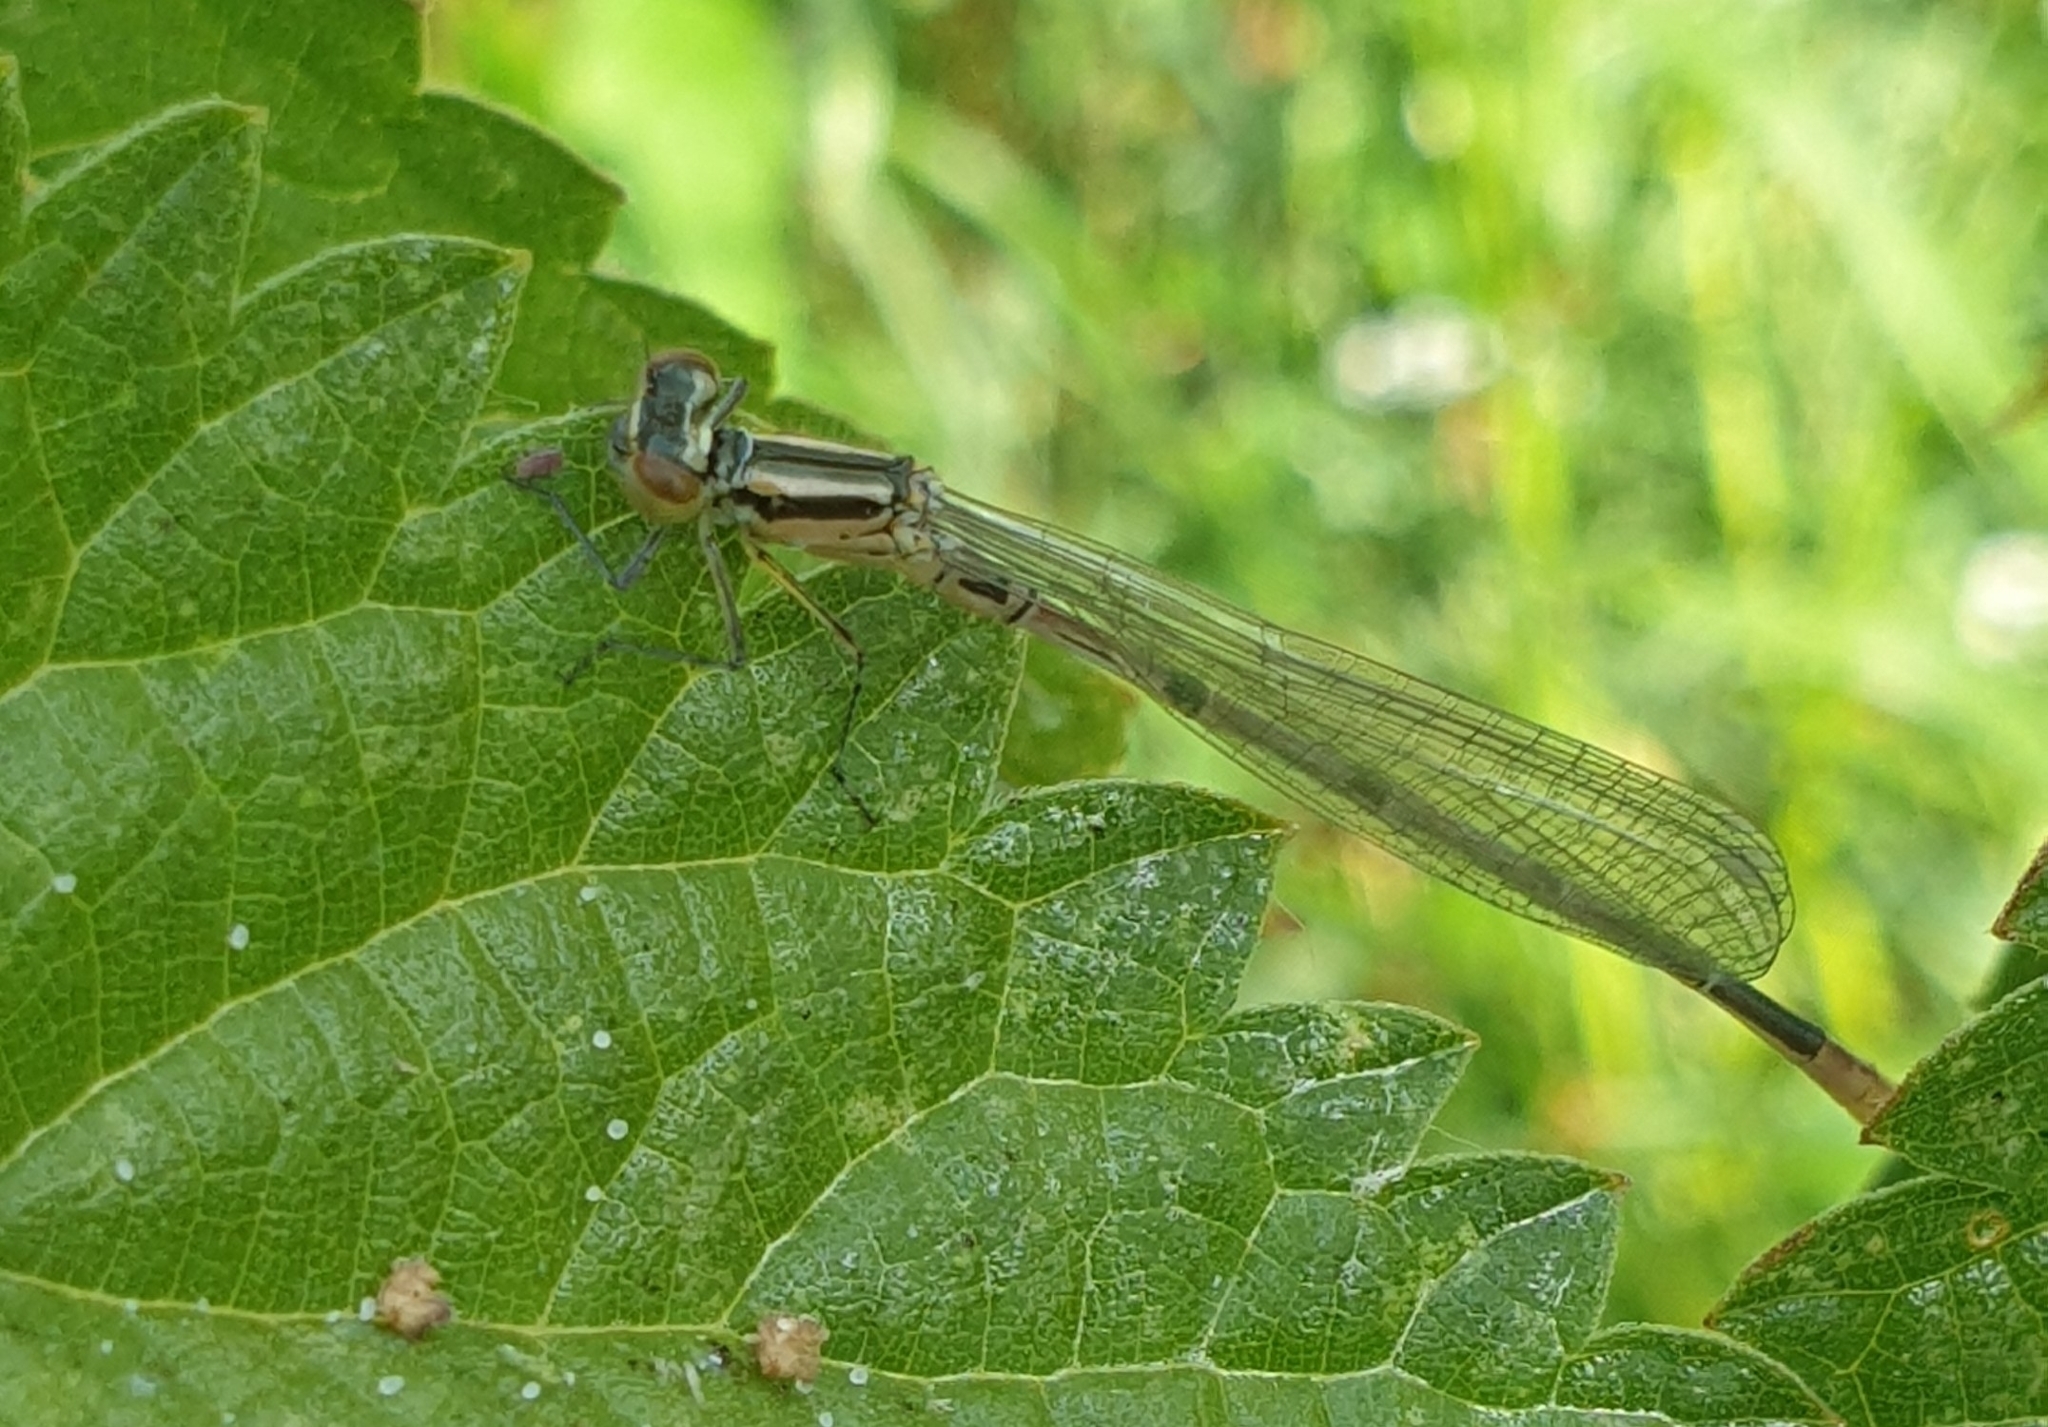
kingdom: Animalia
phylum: Arthropoda
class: Insecta
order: Odonata
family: Coenagrionidae
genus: Coenagrion
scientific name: Coenagrion puella
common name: Azure damselfly
